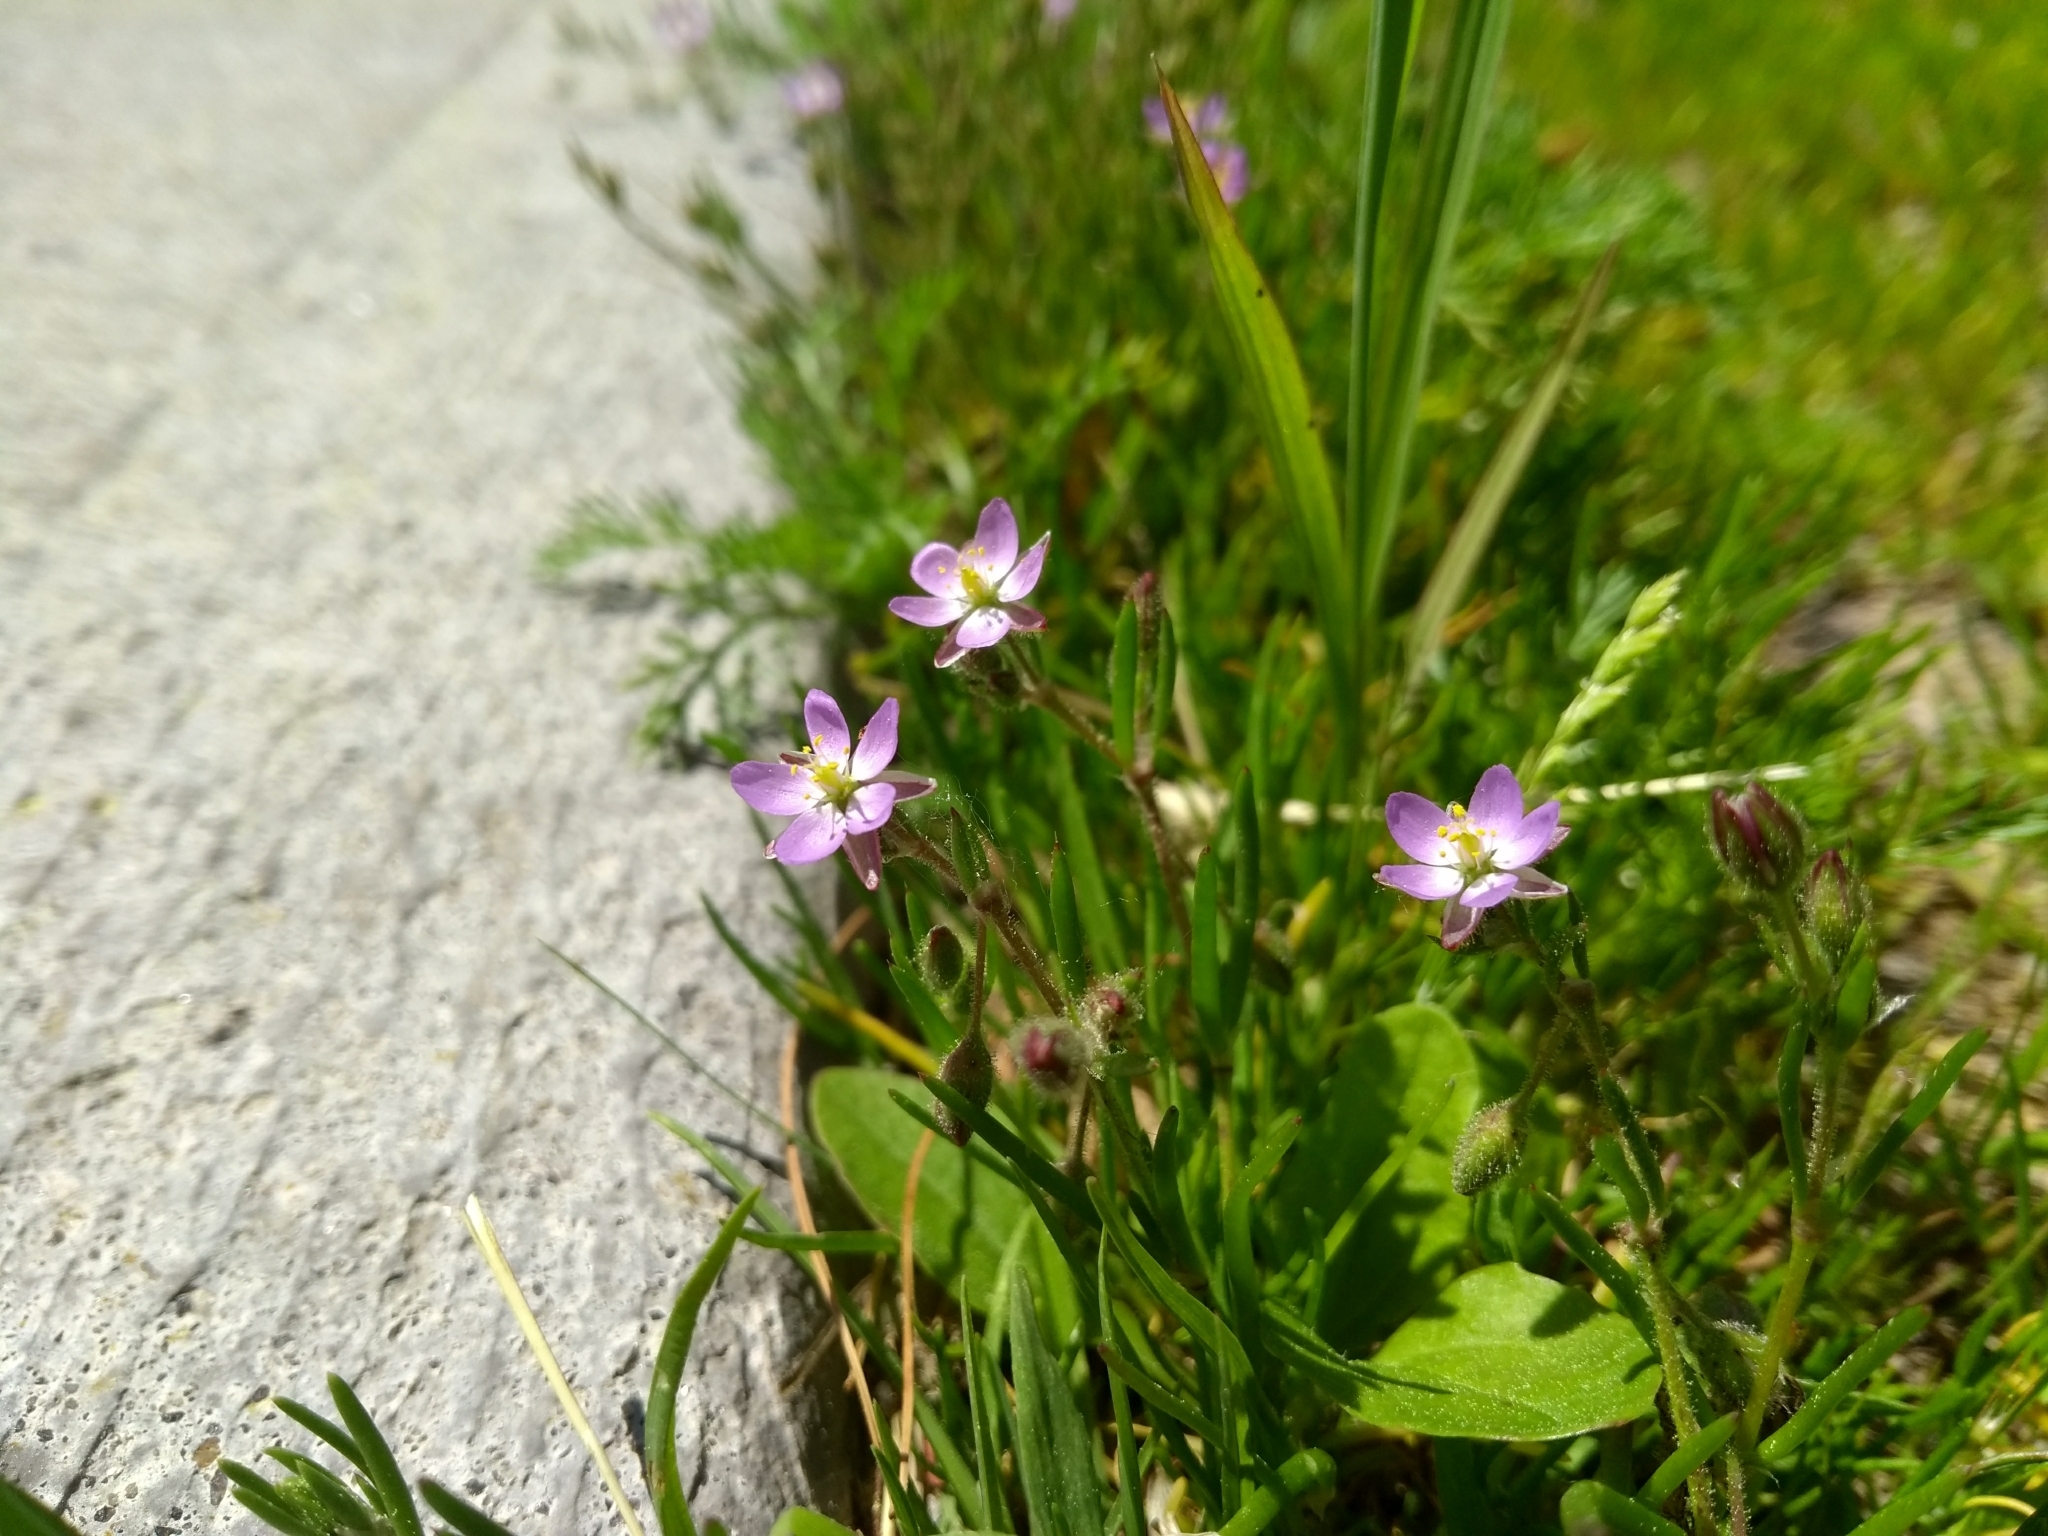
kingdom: Plantae
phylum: Tracheophyta
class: Magnoliopsida
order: Caryophyllales
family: Caryophyllaceae
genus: Spergularia
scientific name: Spergularia rubra
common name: Red sand-spurrey
